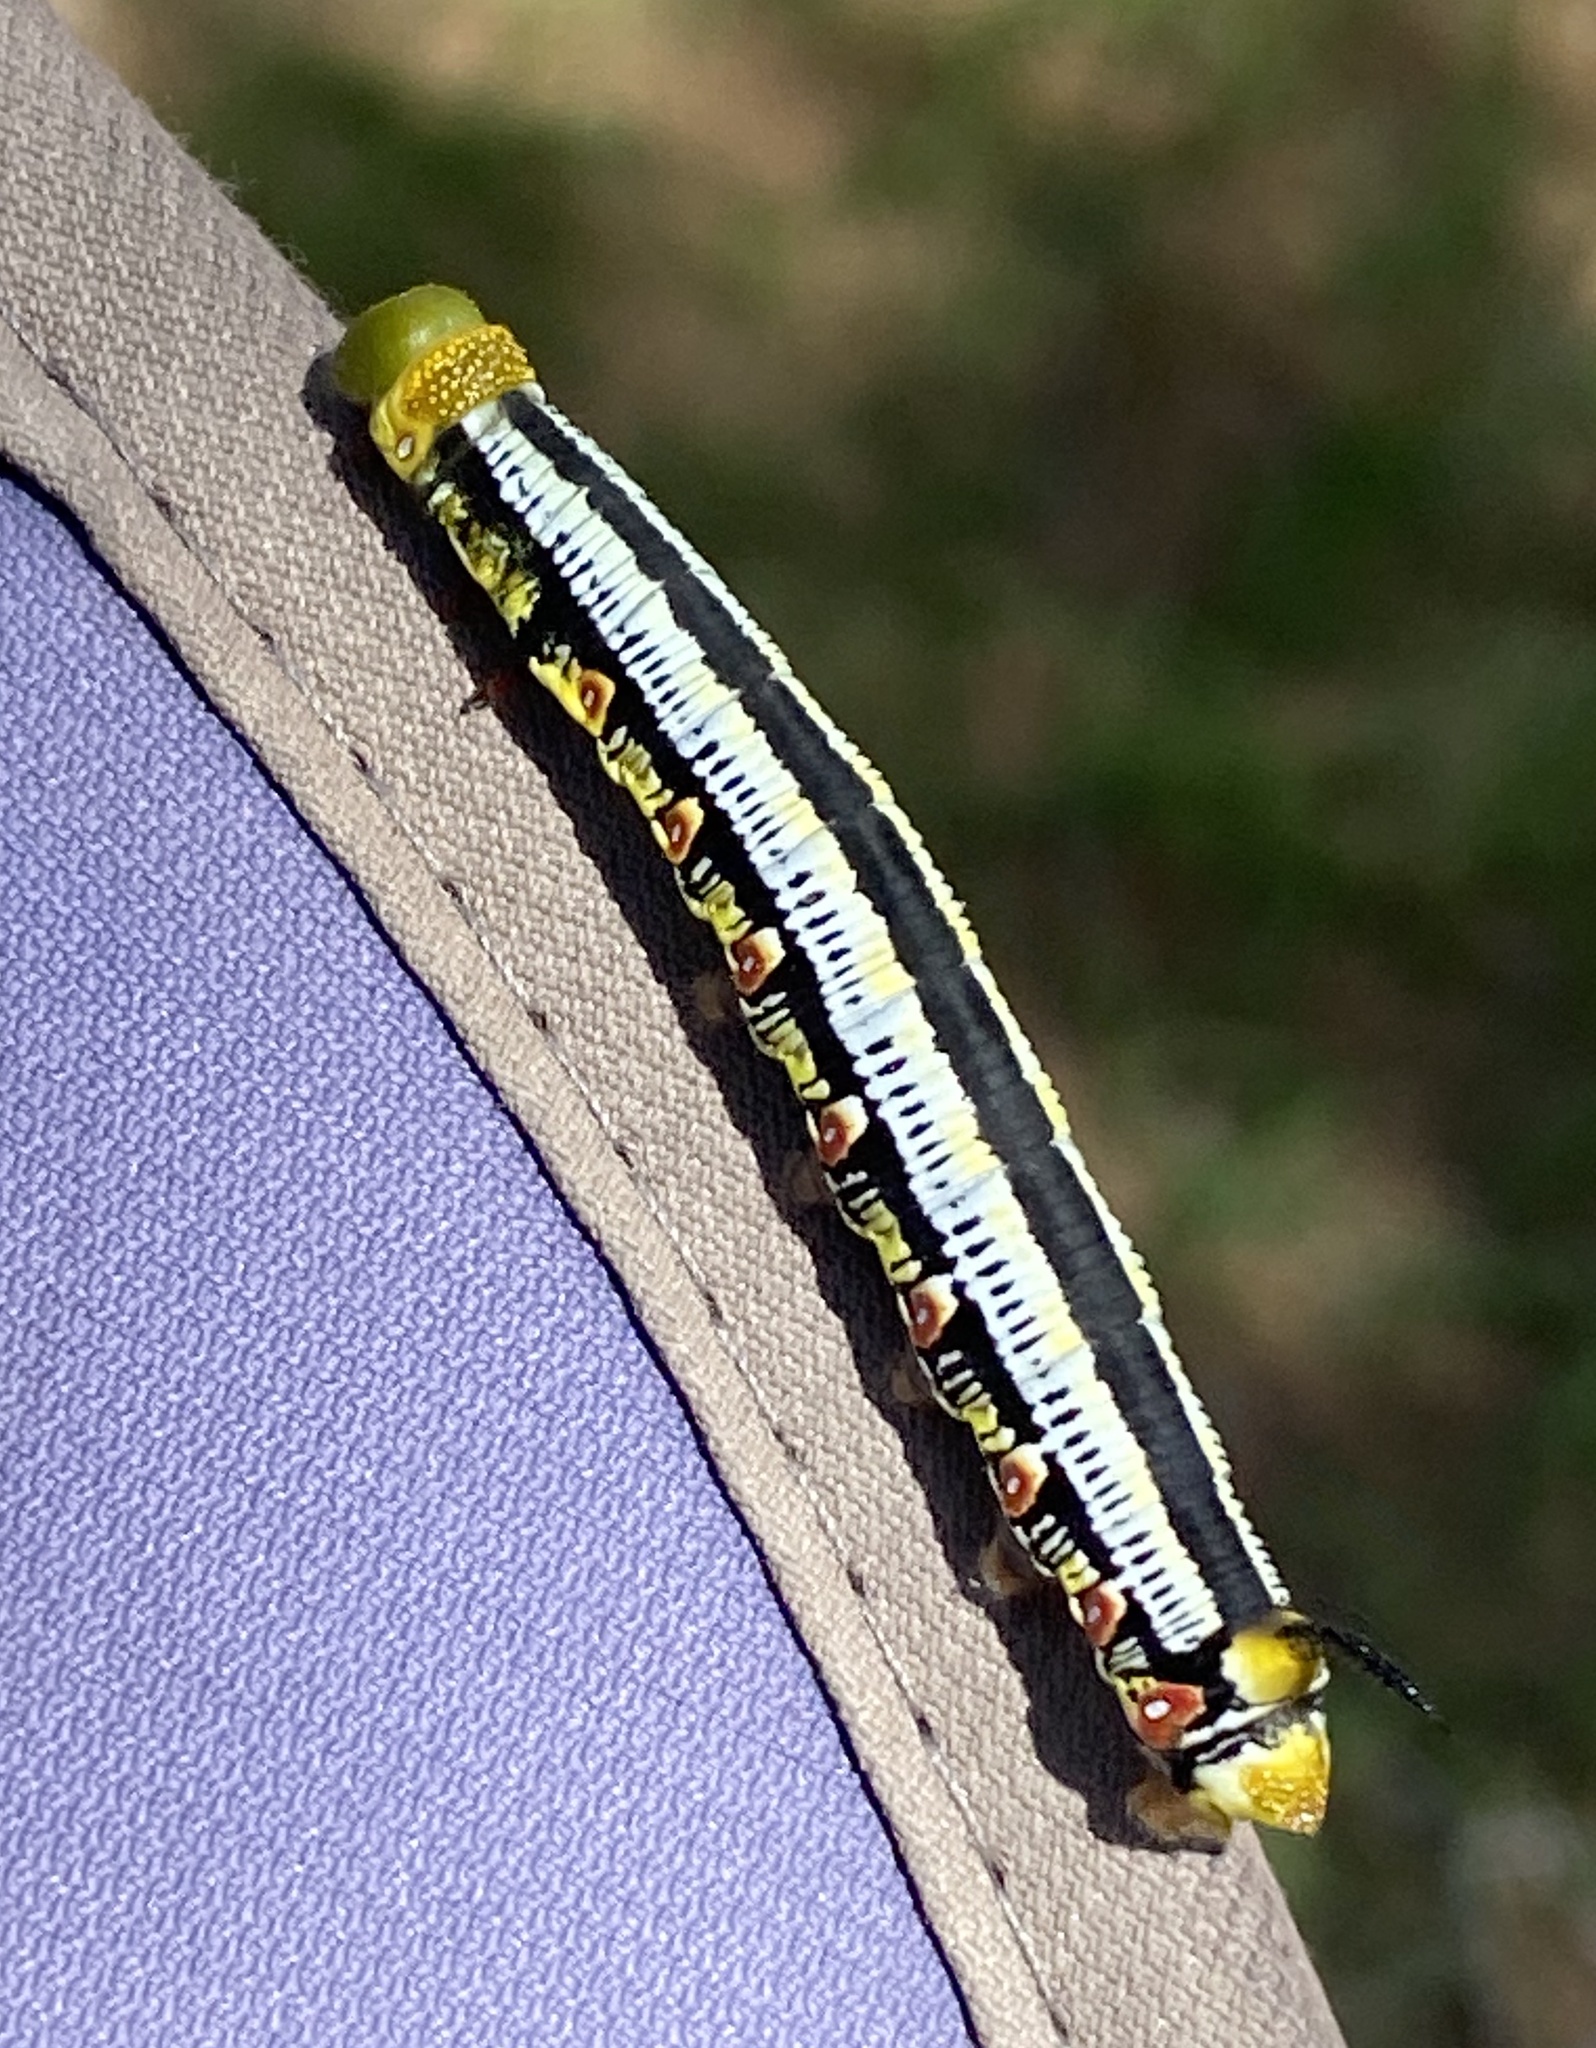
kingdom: Animalia
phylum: Arthropoda
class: Insecta
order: Lepidoptera
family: Sphingidae
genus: Cephonodes
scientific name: Cephonodes hylas
